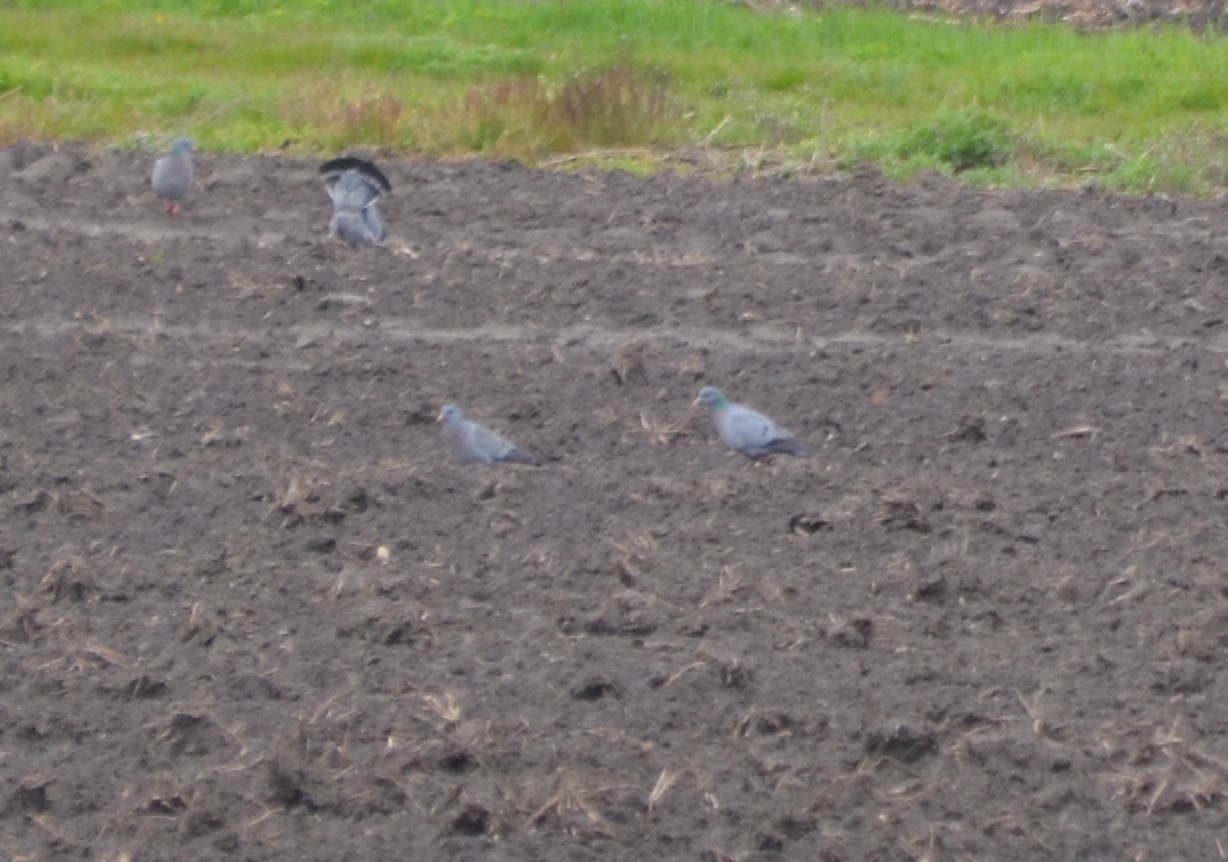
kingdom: Animalia
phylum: Chordata
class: Aves
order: Columbiformes
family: Columbidae
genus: Columba
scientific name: Columba oenas
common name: Stock dove
